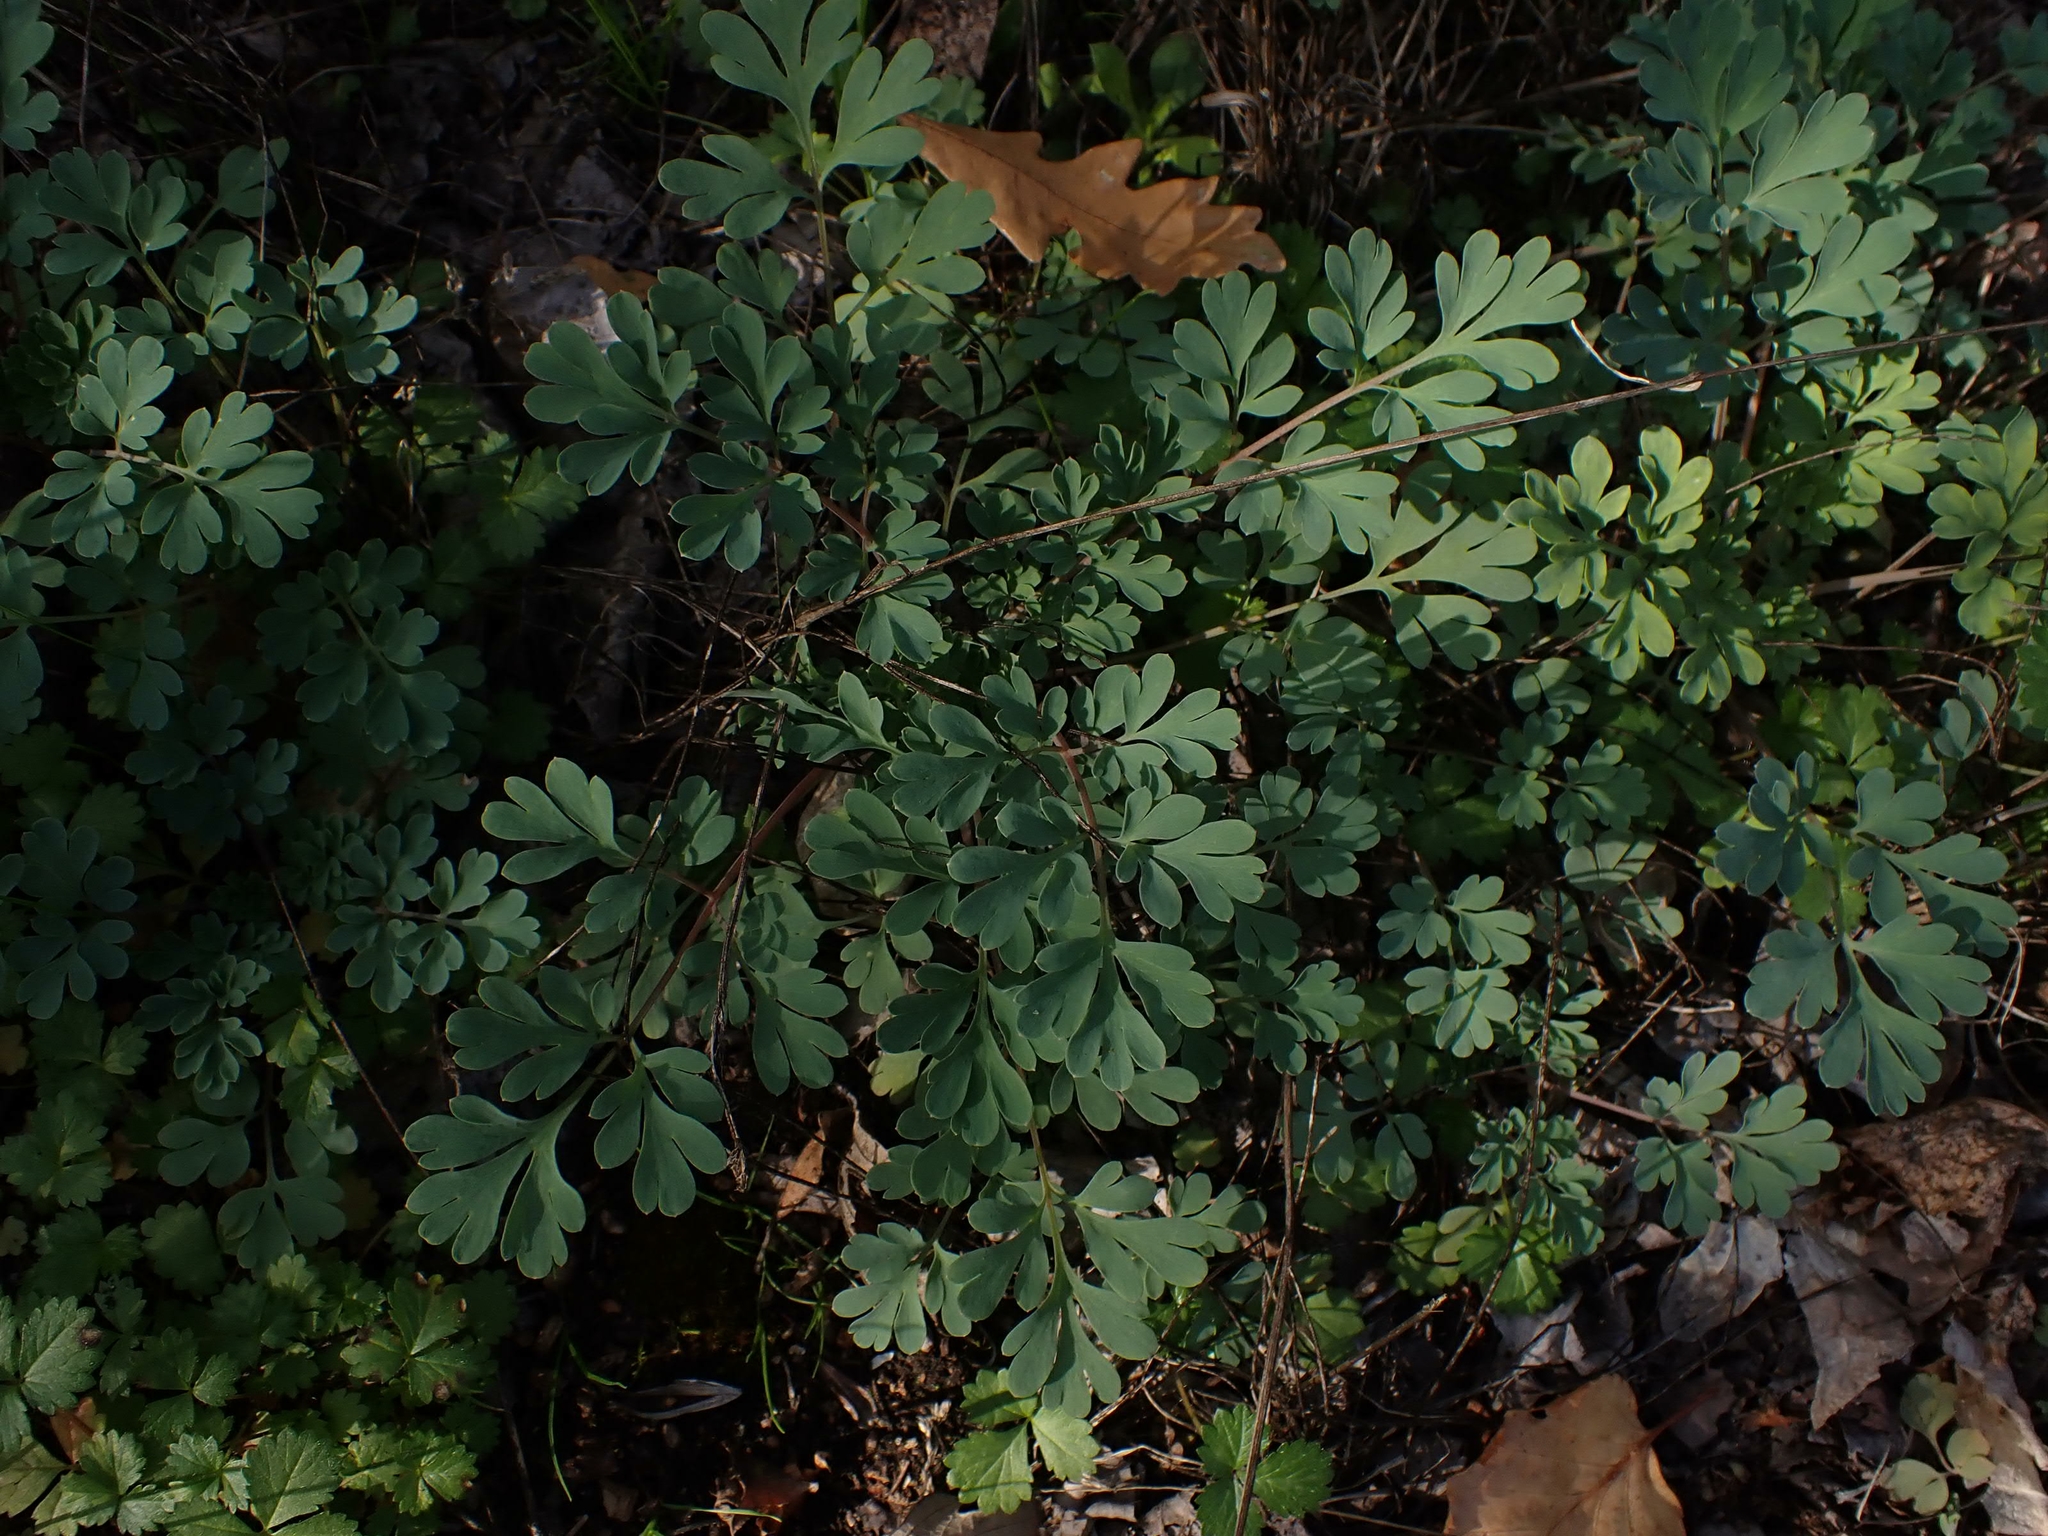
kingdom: Plantae
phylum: Tracheophyta
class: Magnoliopsida
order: Ranunculales
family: Papaveraceae
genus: Capnoides
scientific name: Capnoides sempervirens
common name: Rock harlequin
